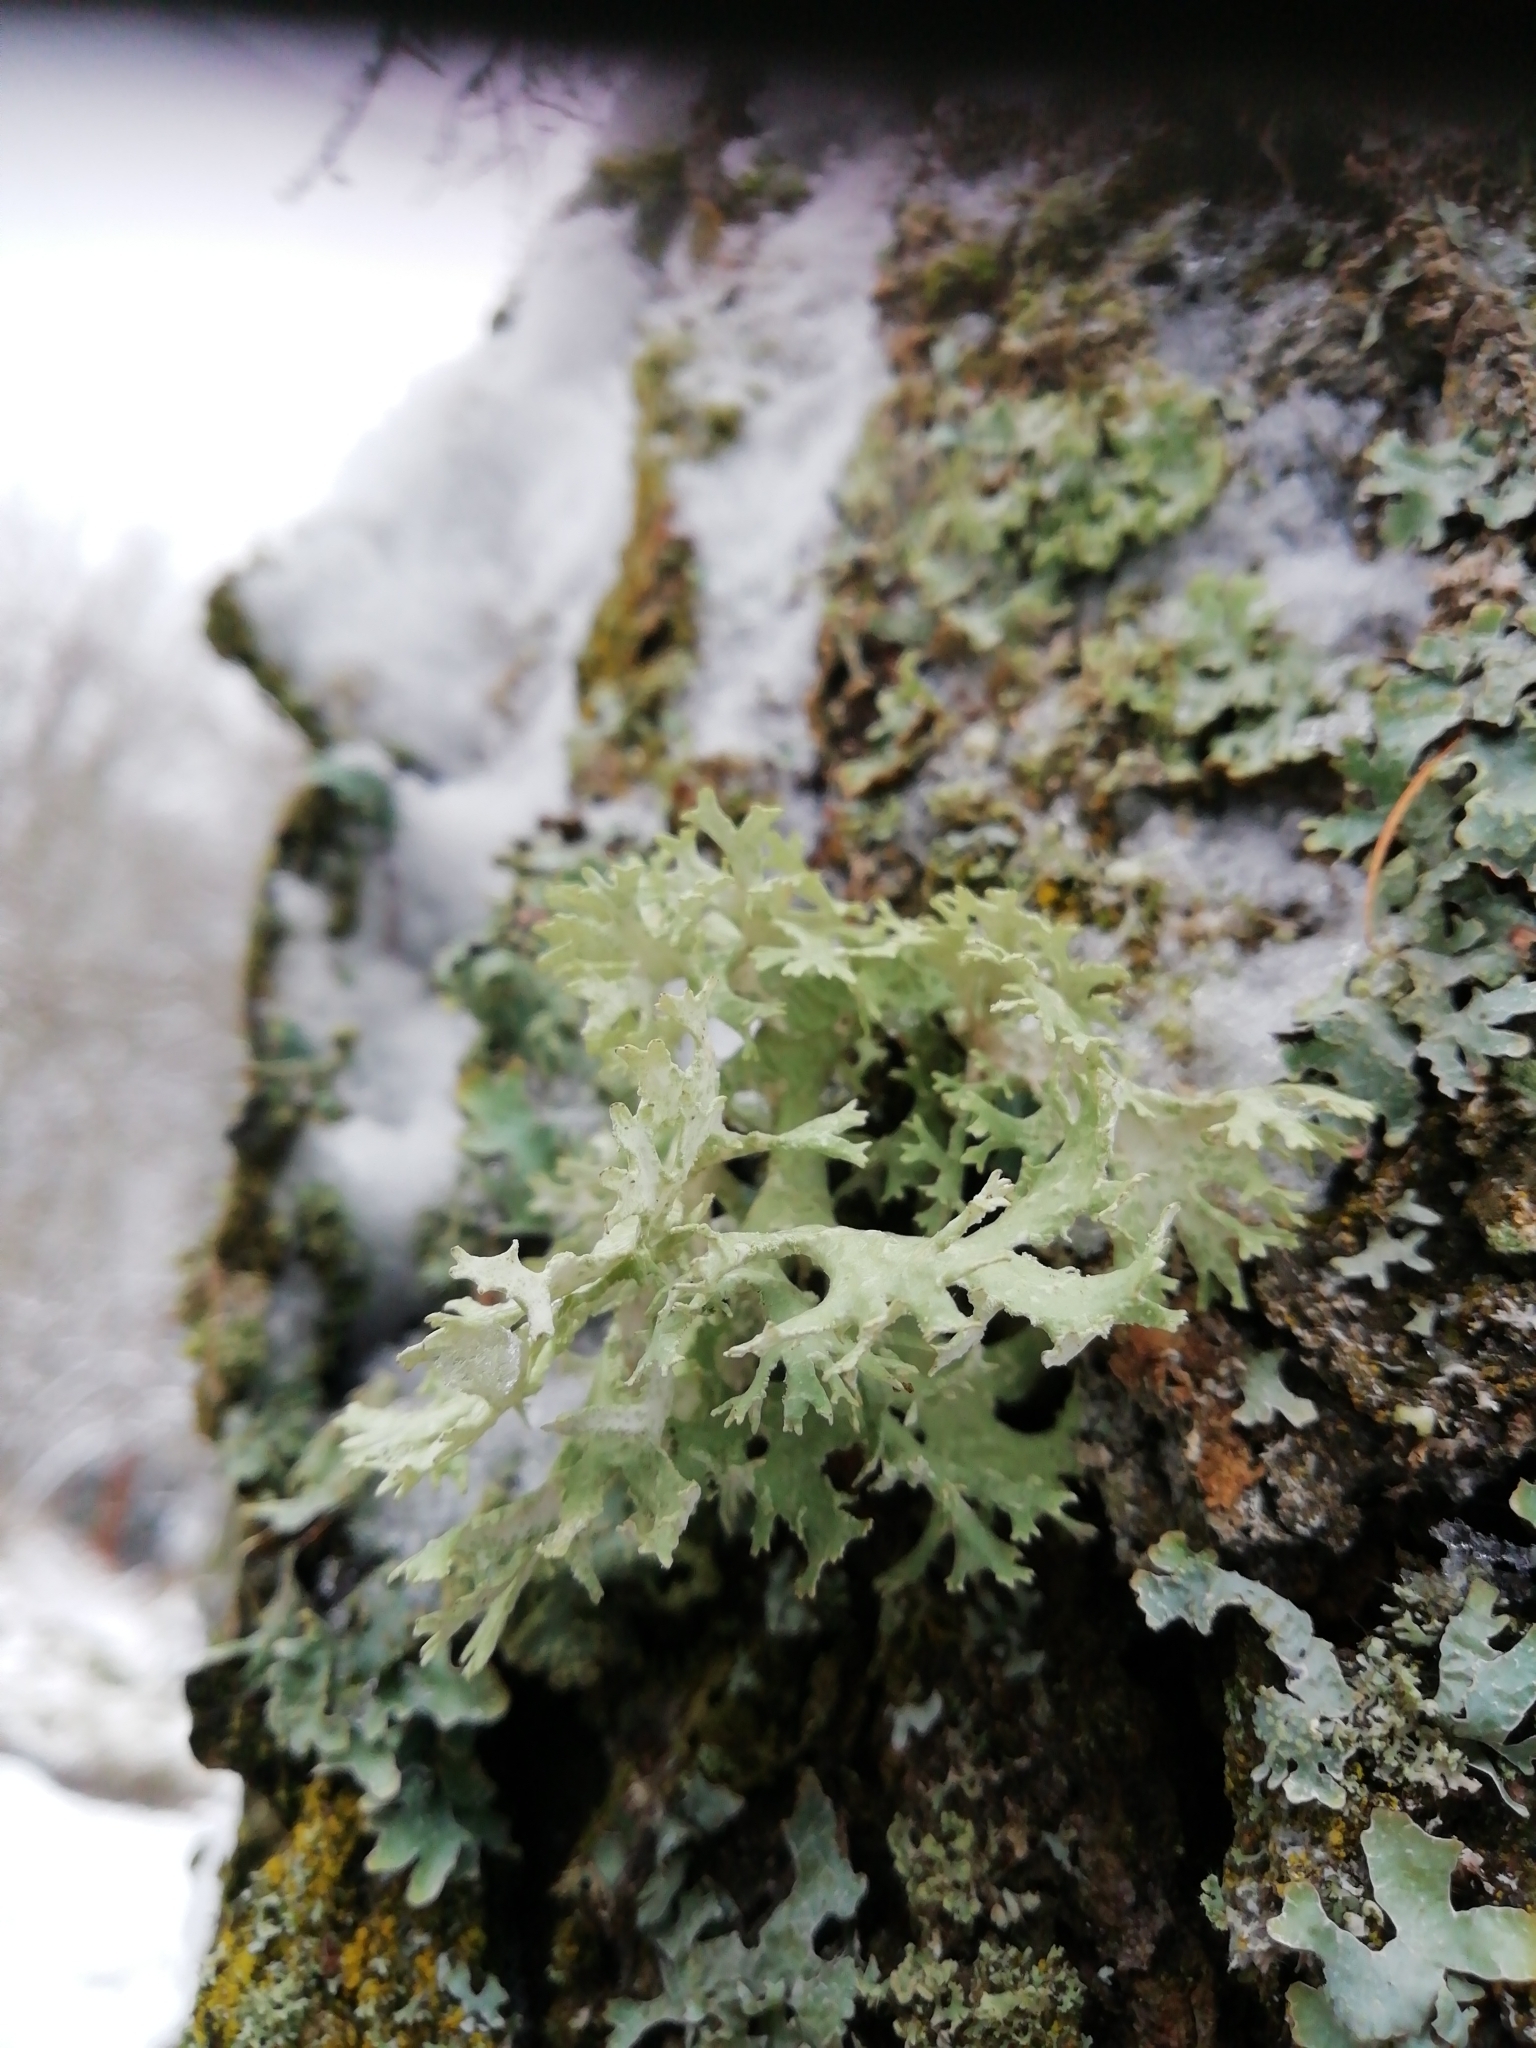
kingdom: Fungi
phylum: Ascomycota
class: Lecanoromycetes
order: Lecanorales
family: Parmeliaceae
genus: Evernia
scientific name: Evernia prunastri
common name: Oak moss
